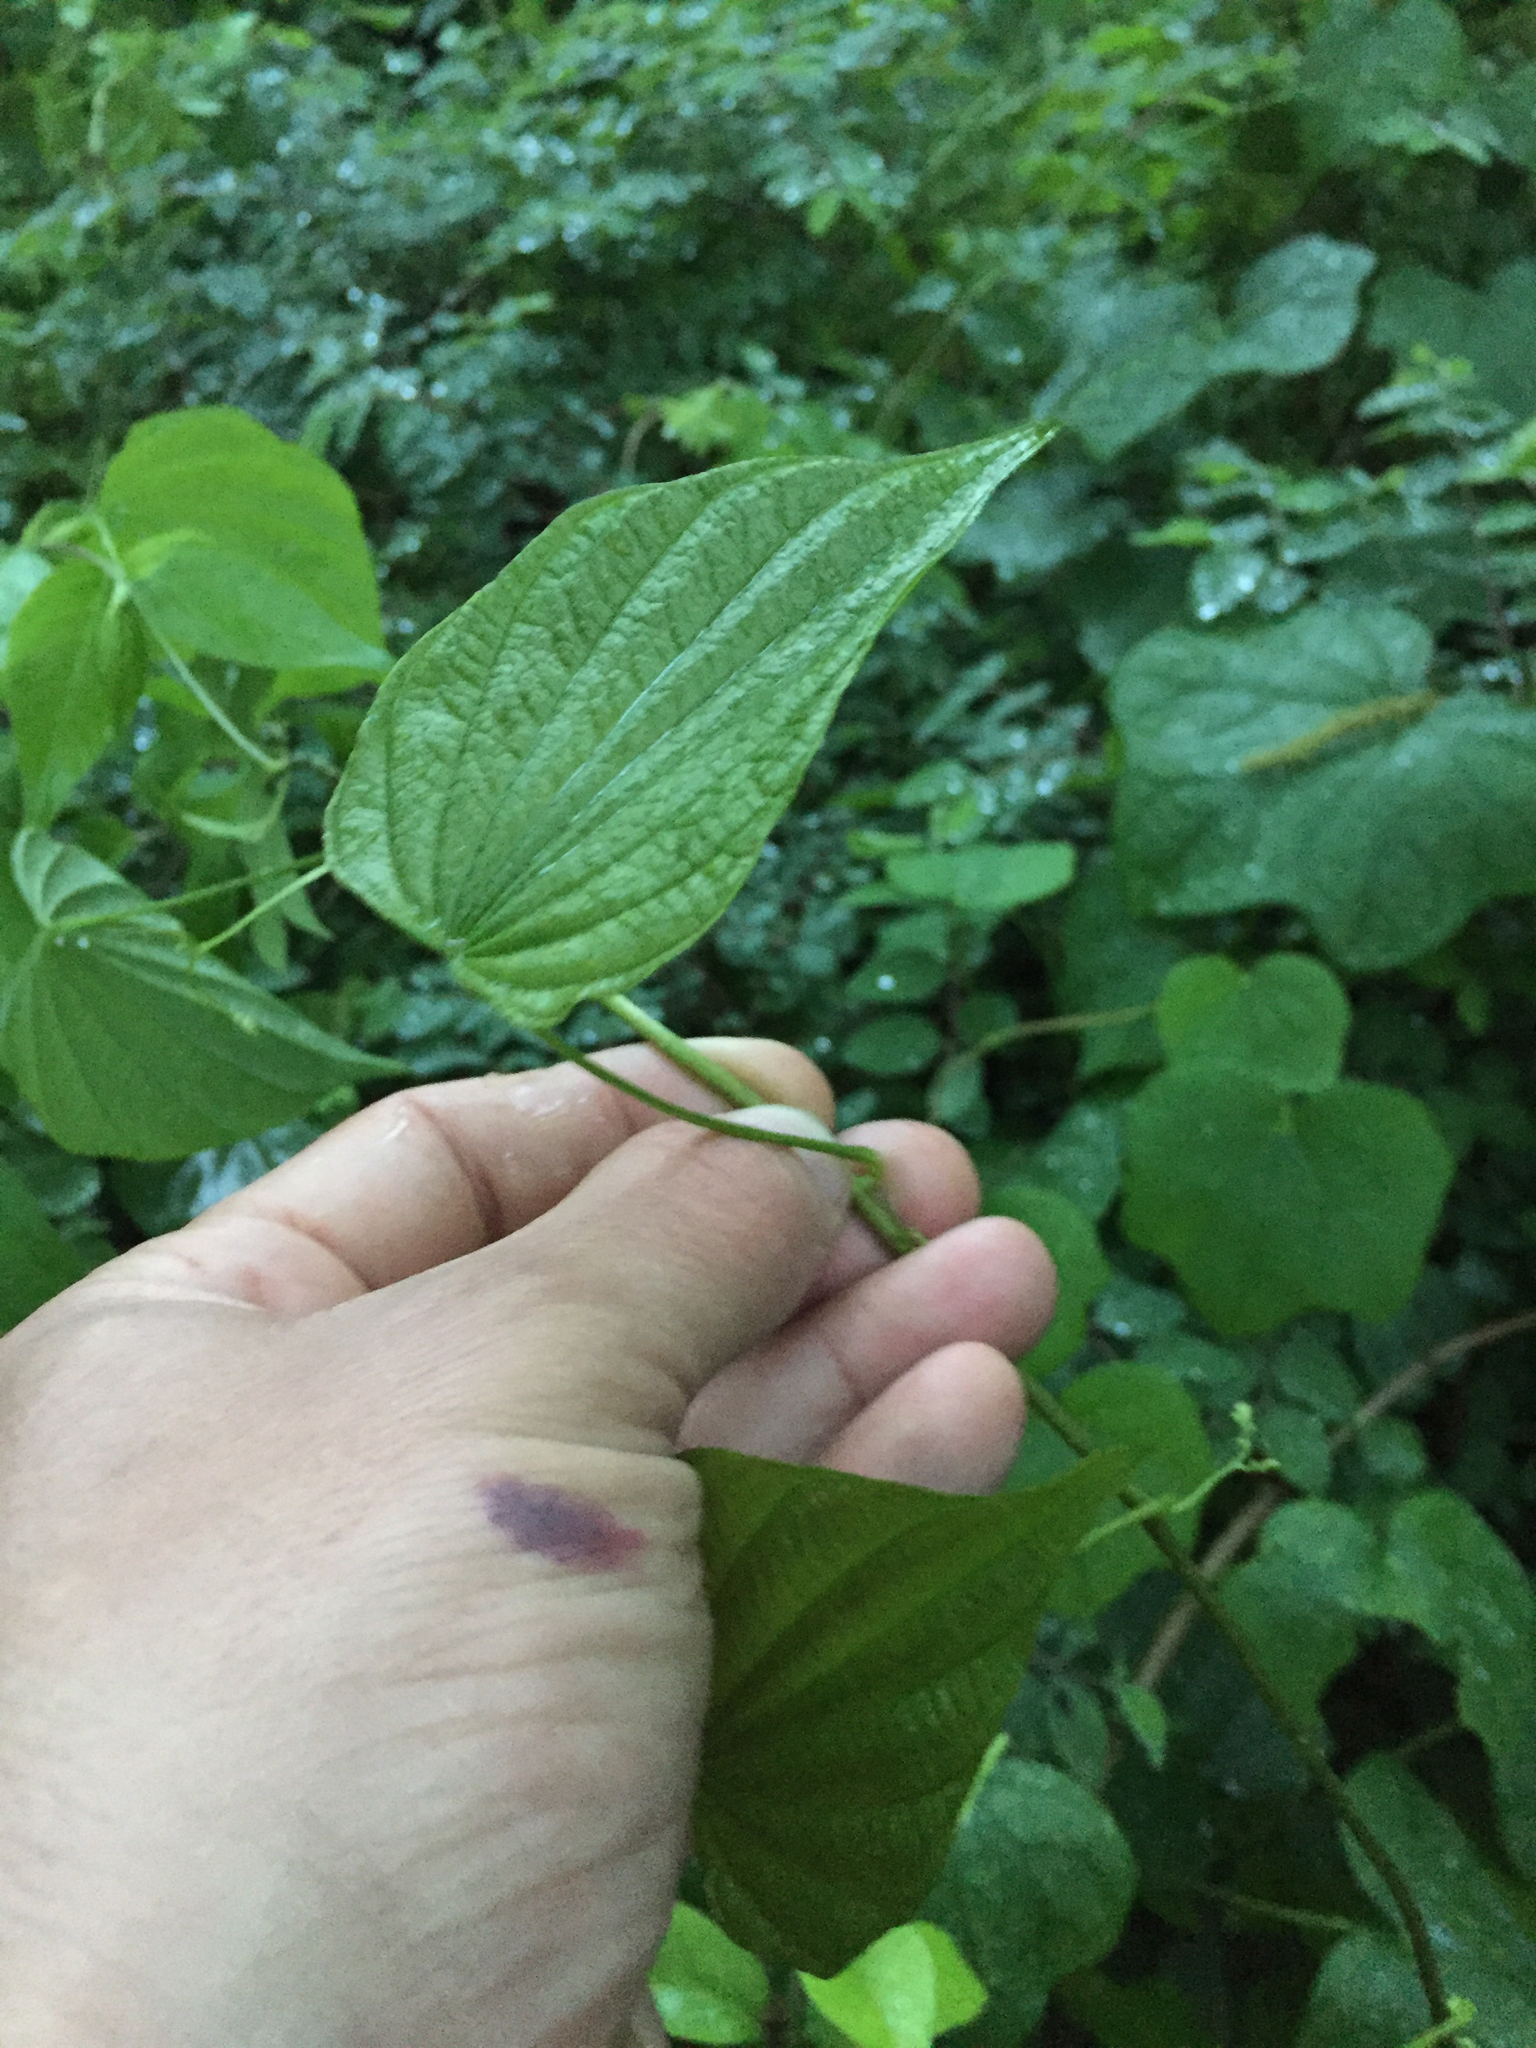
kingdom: Plantae
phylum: Tracheophyta
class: Liliopsida
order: Dioscoreales
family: Dioscoreaceae
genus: Dioscorea
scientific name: Dioscorea villosa
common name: Wild yam
